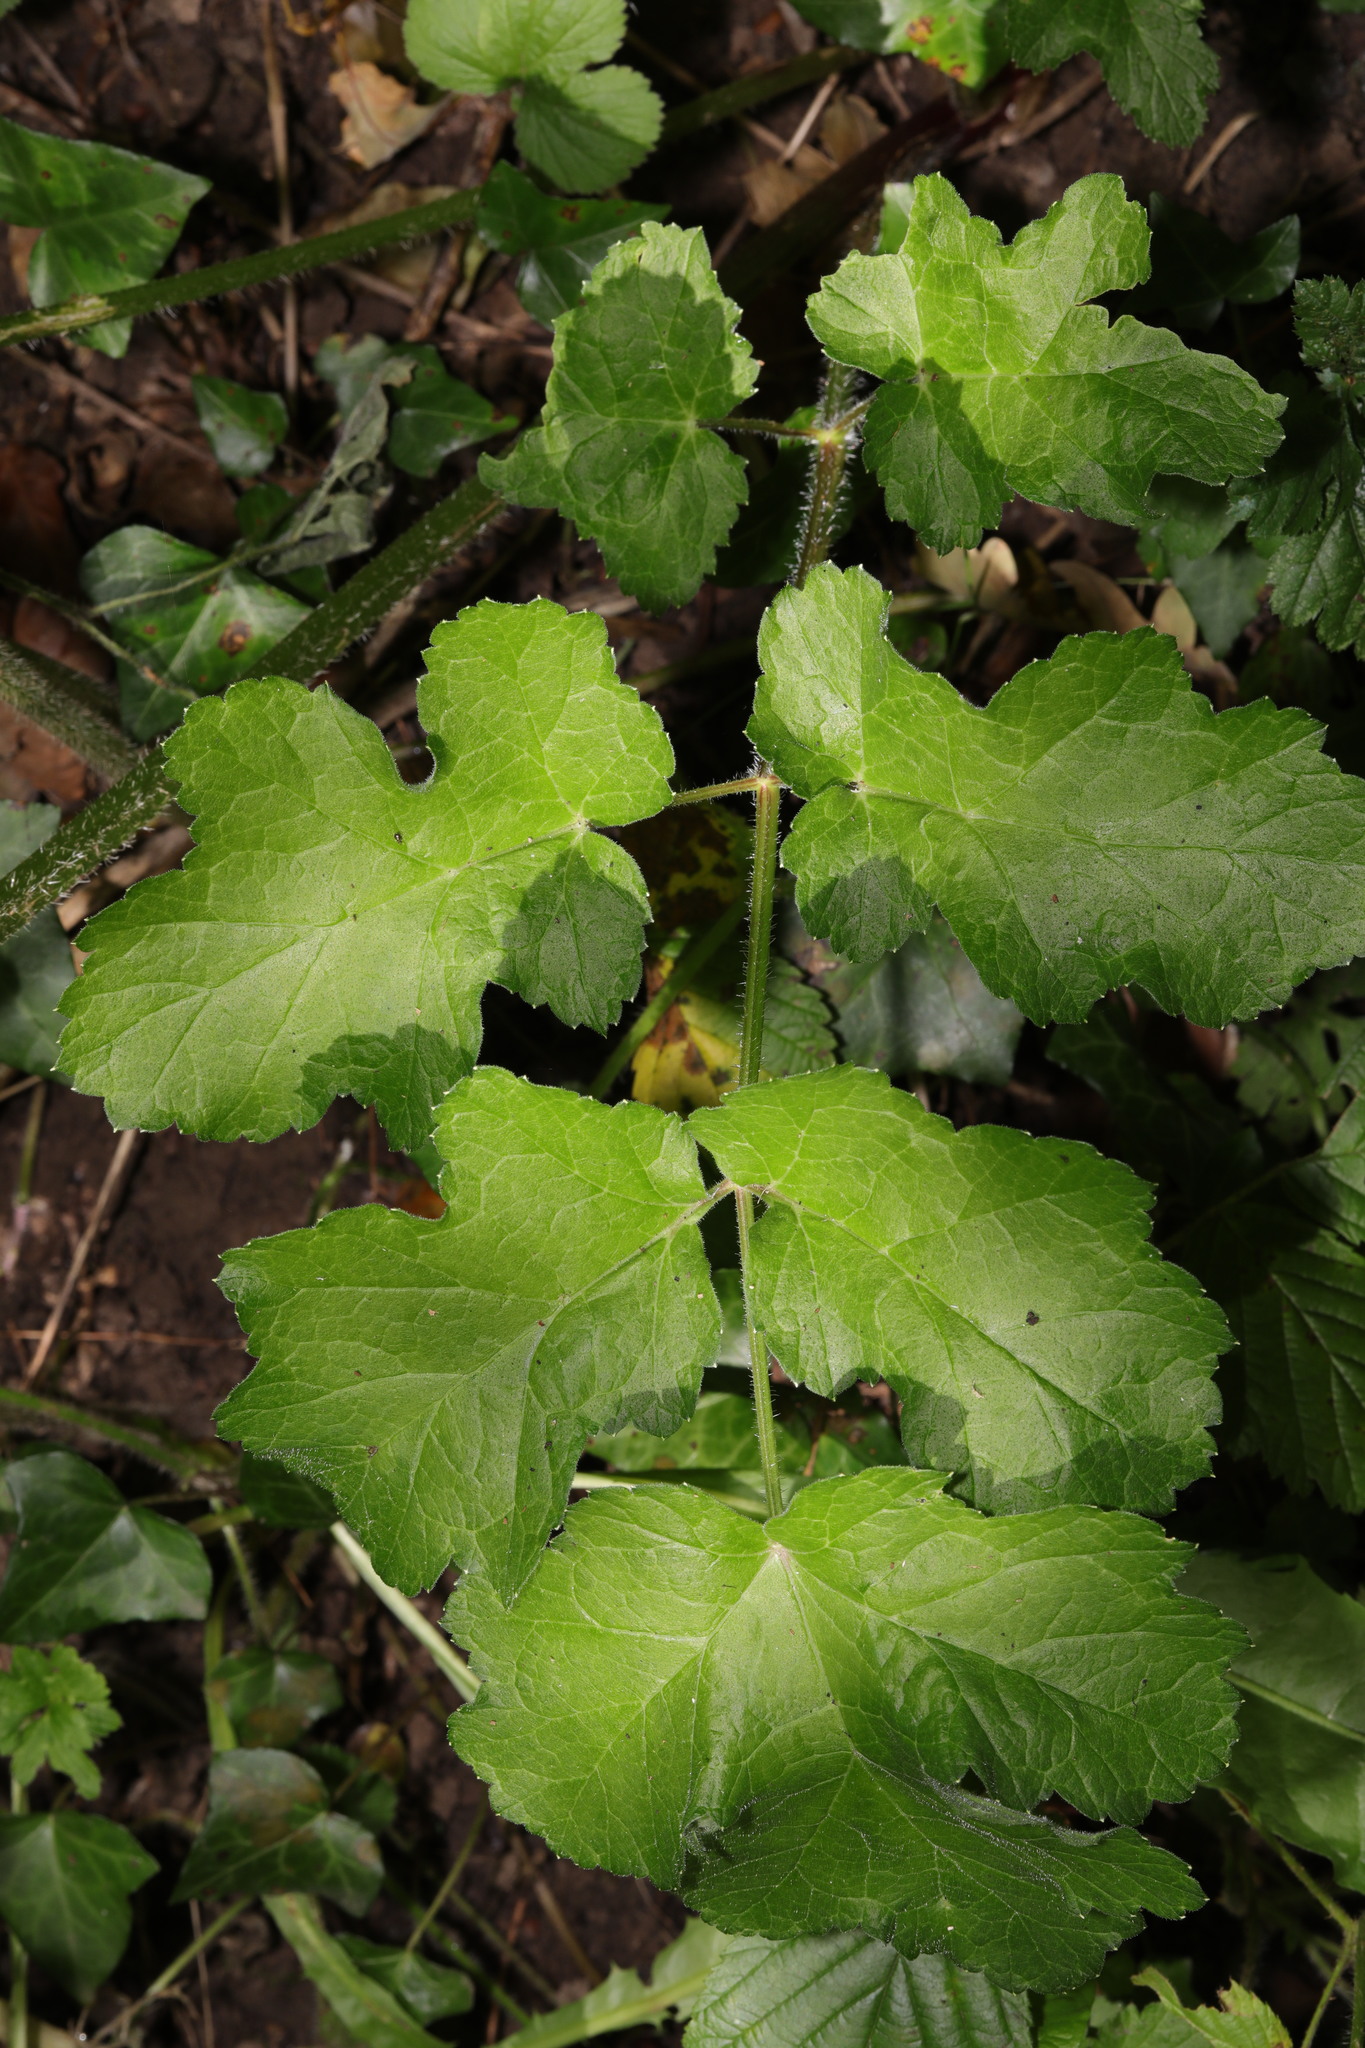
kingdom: Plantae
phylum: Tracheophyta
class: Magnoliopsida
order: Apiales
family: Apiaceae
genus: Heracleum
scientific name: Heracleum sphondylium
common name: Hogweed
